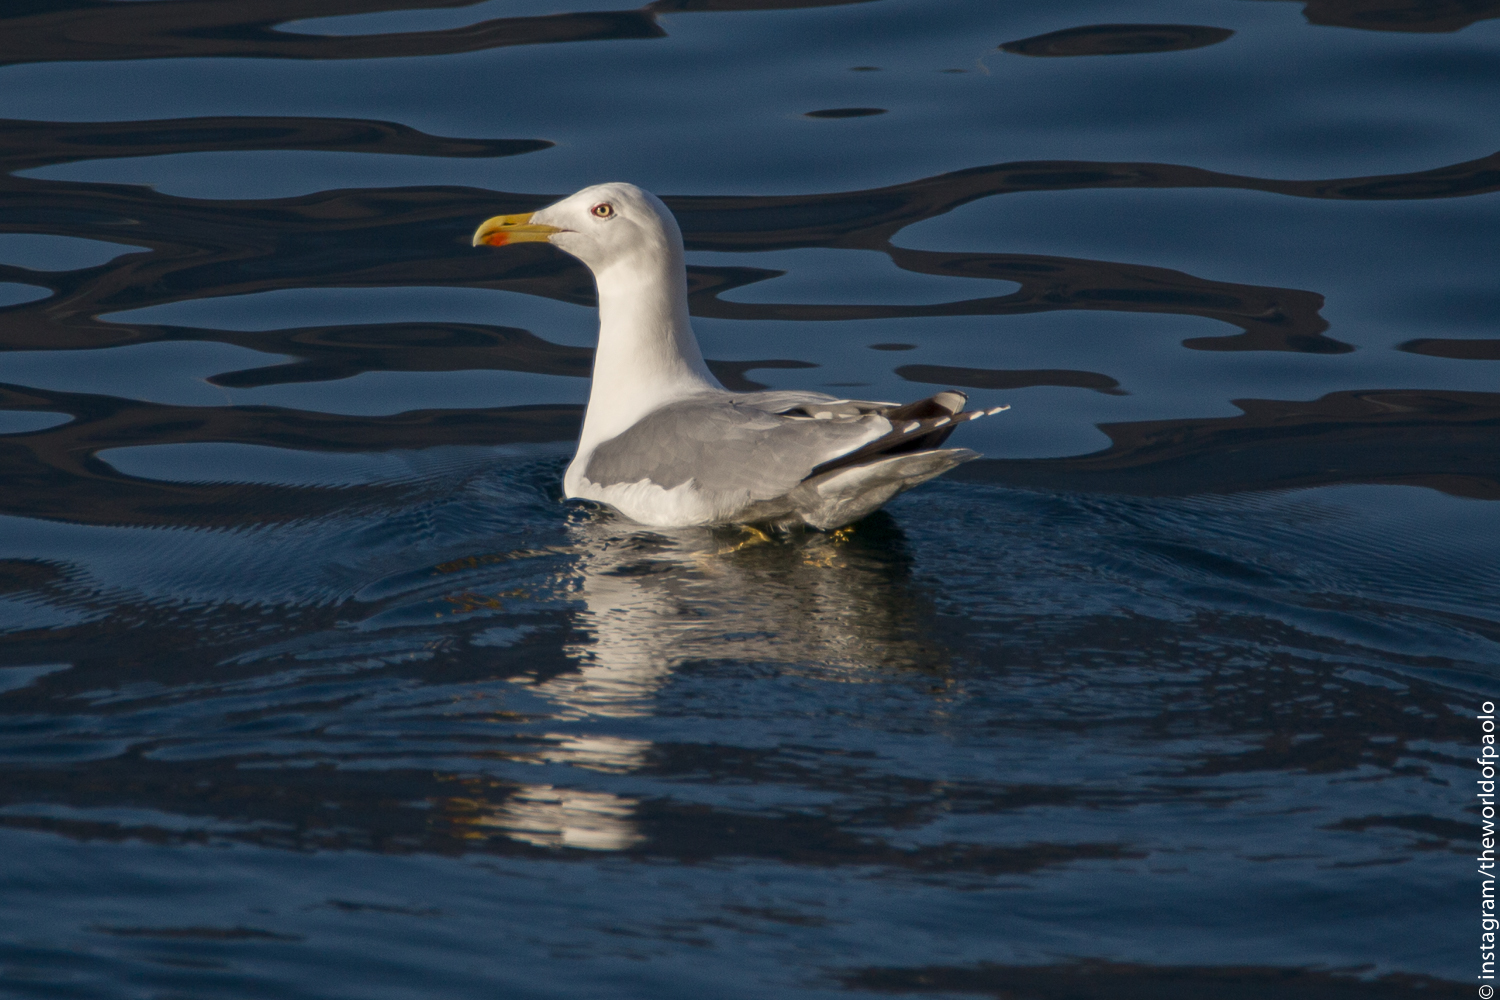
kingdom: Animalia
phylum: Chordata
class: Aves
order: Charadriiformes
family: Laridae
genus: Larus
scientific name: Larus michahellis
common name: Yellow-legged gull
